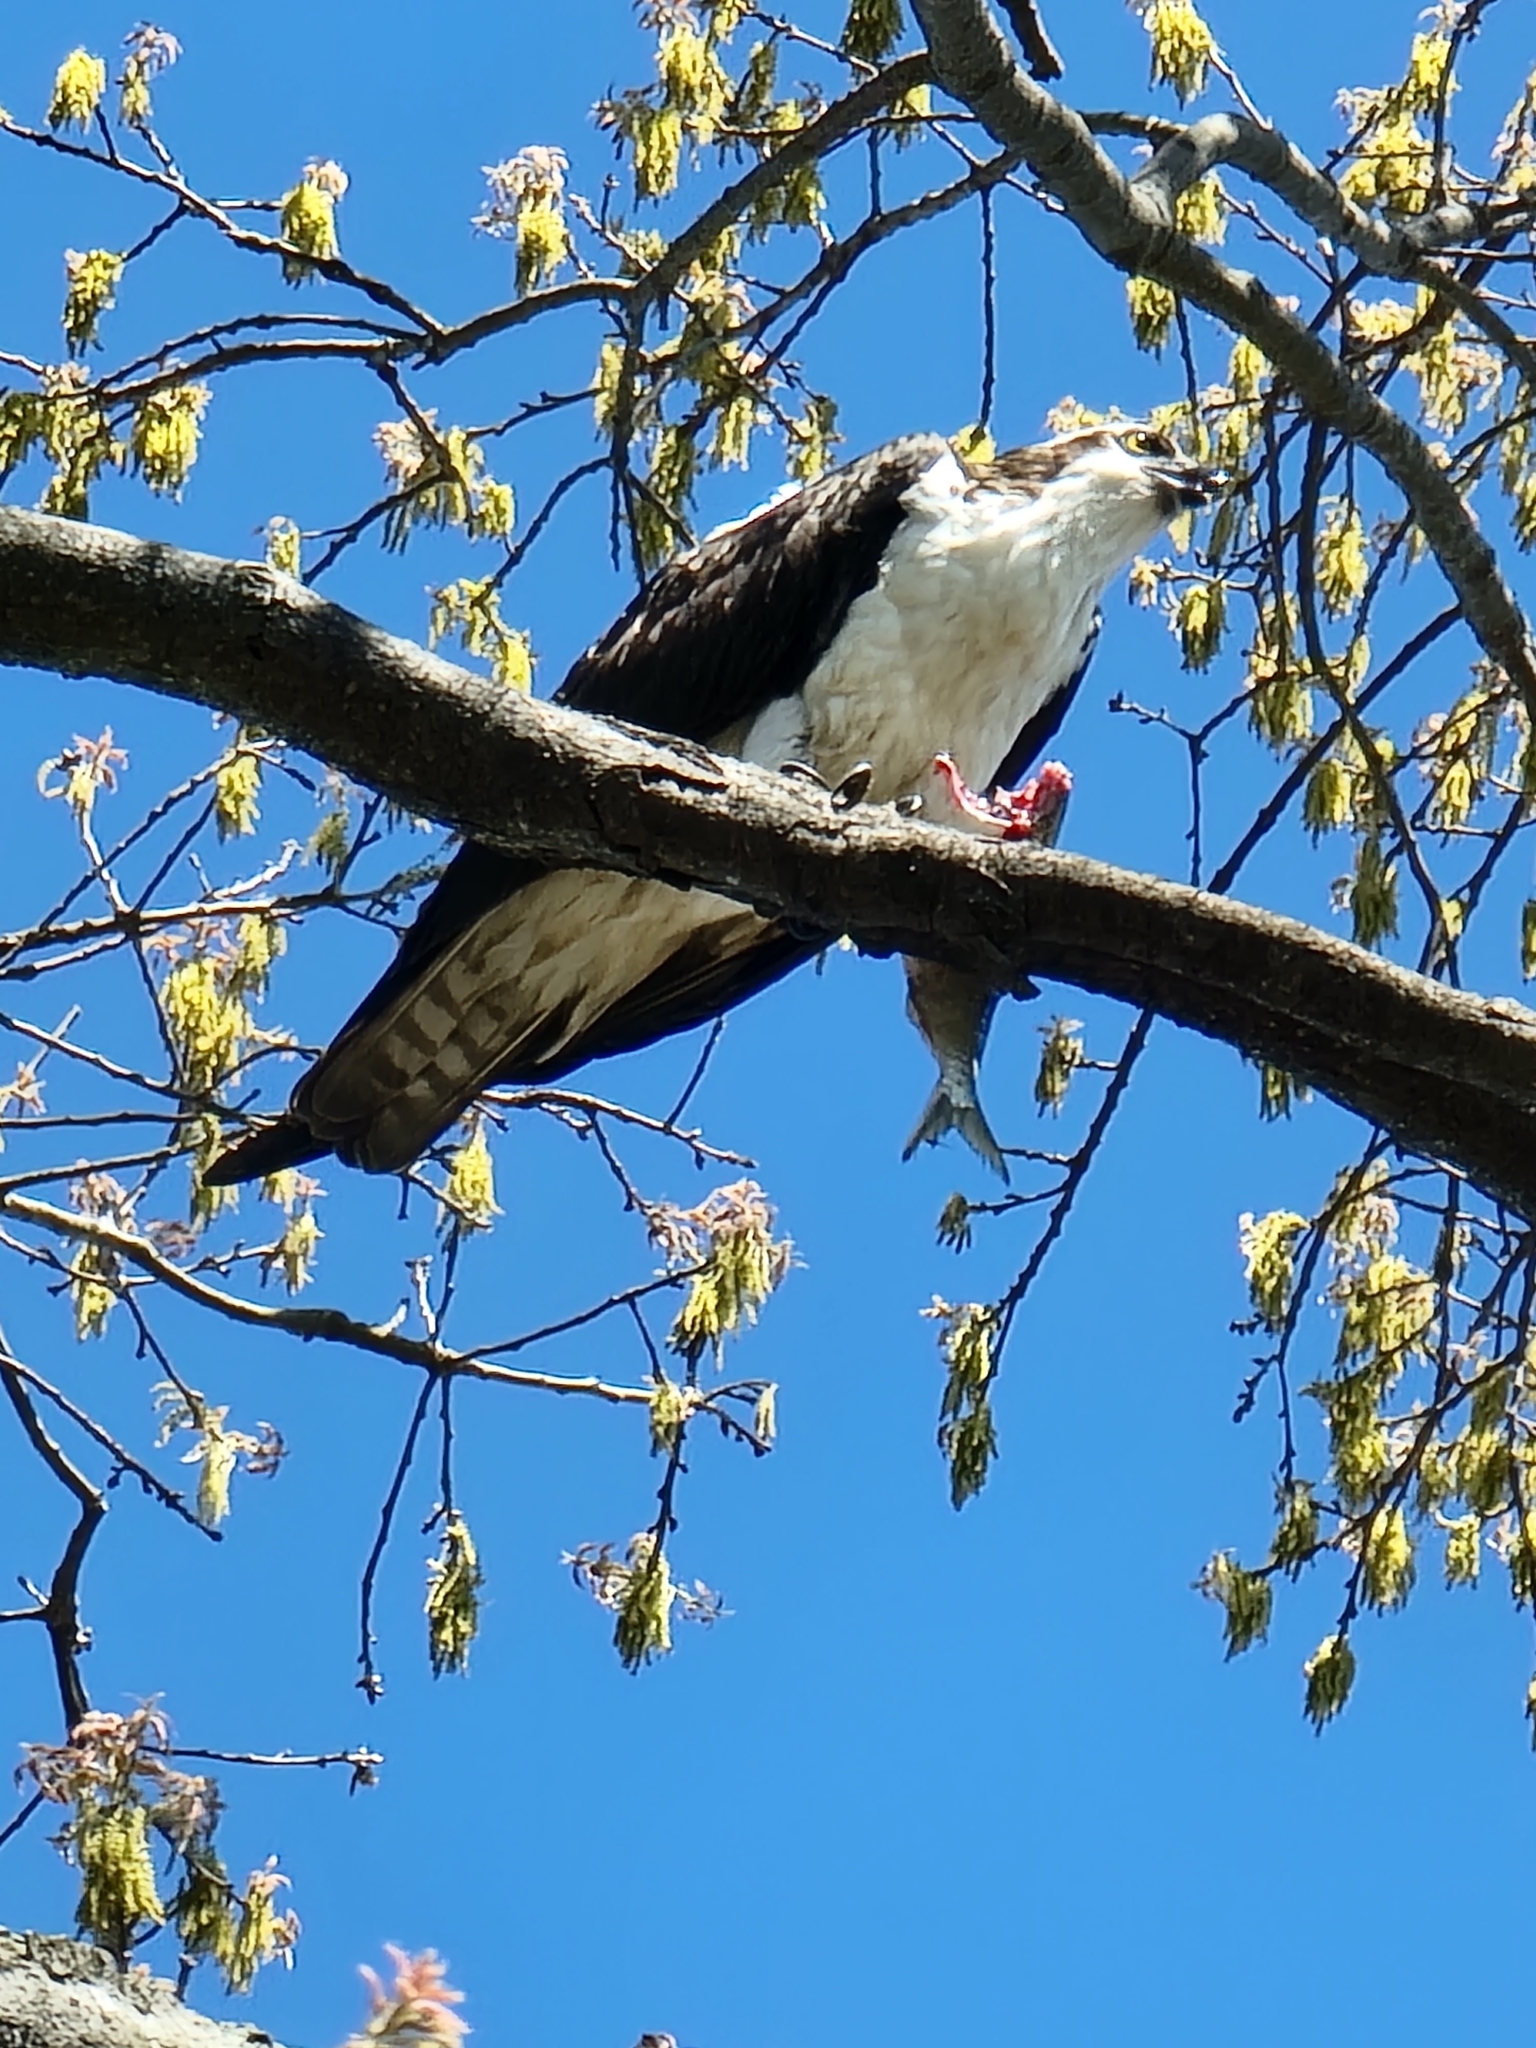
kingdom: Animalia
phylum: Chordata
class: Aves
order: Accipitriformes
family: Pandionidae
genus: Pandion
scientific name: Pandion haliaetus
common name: Osprey
